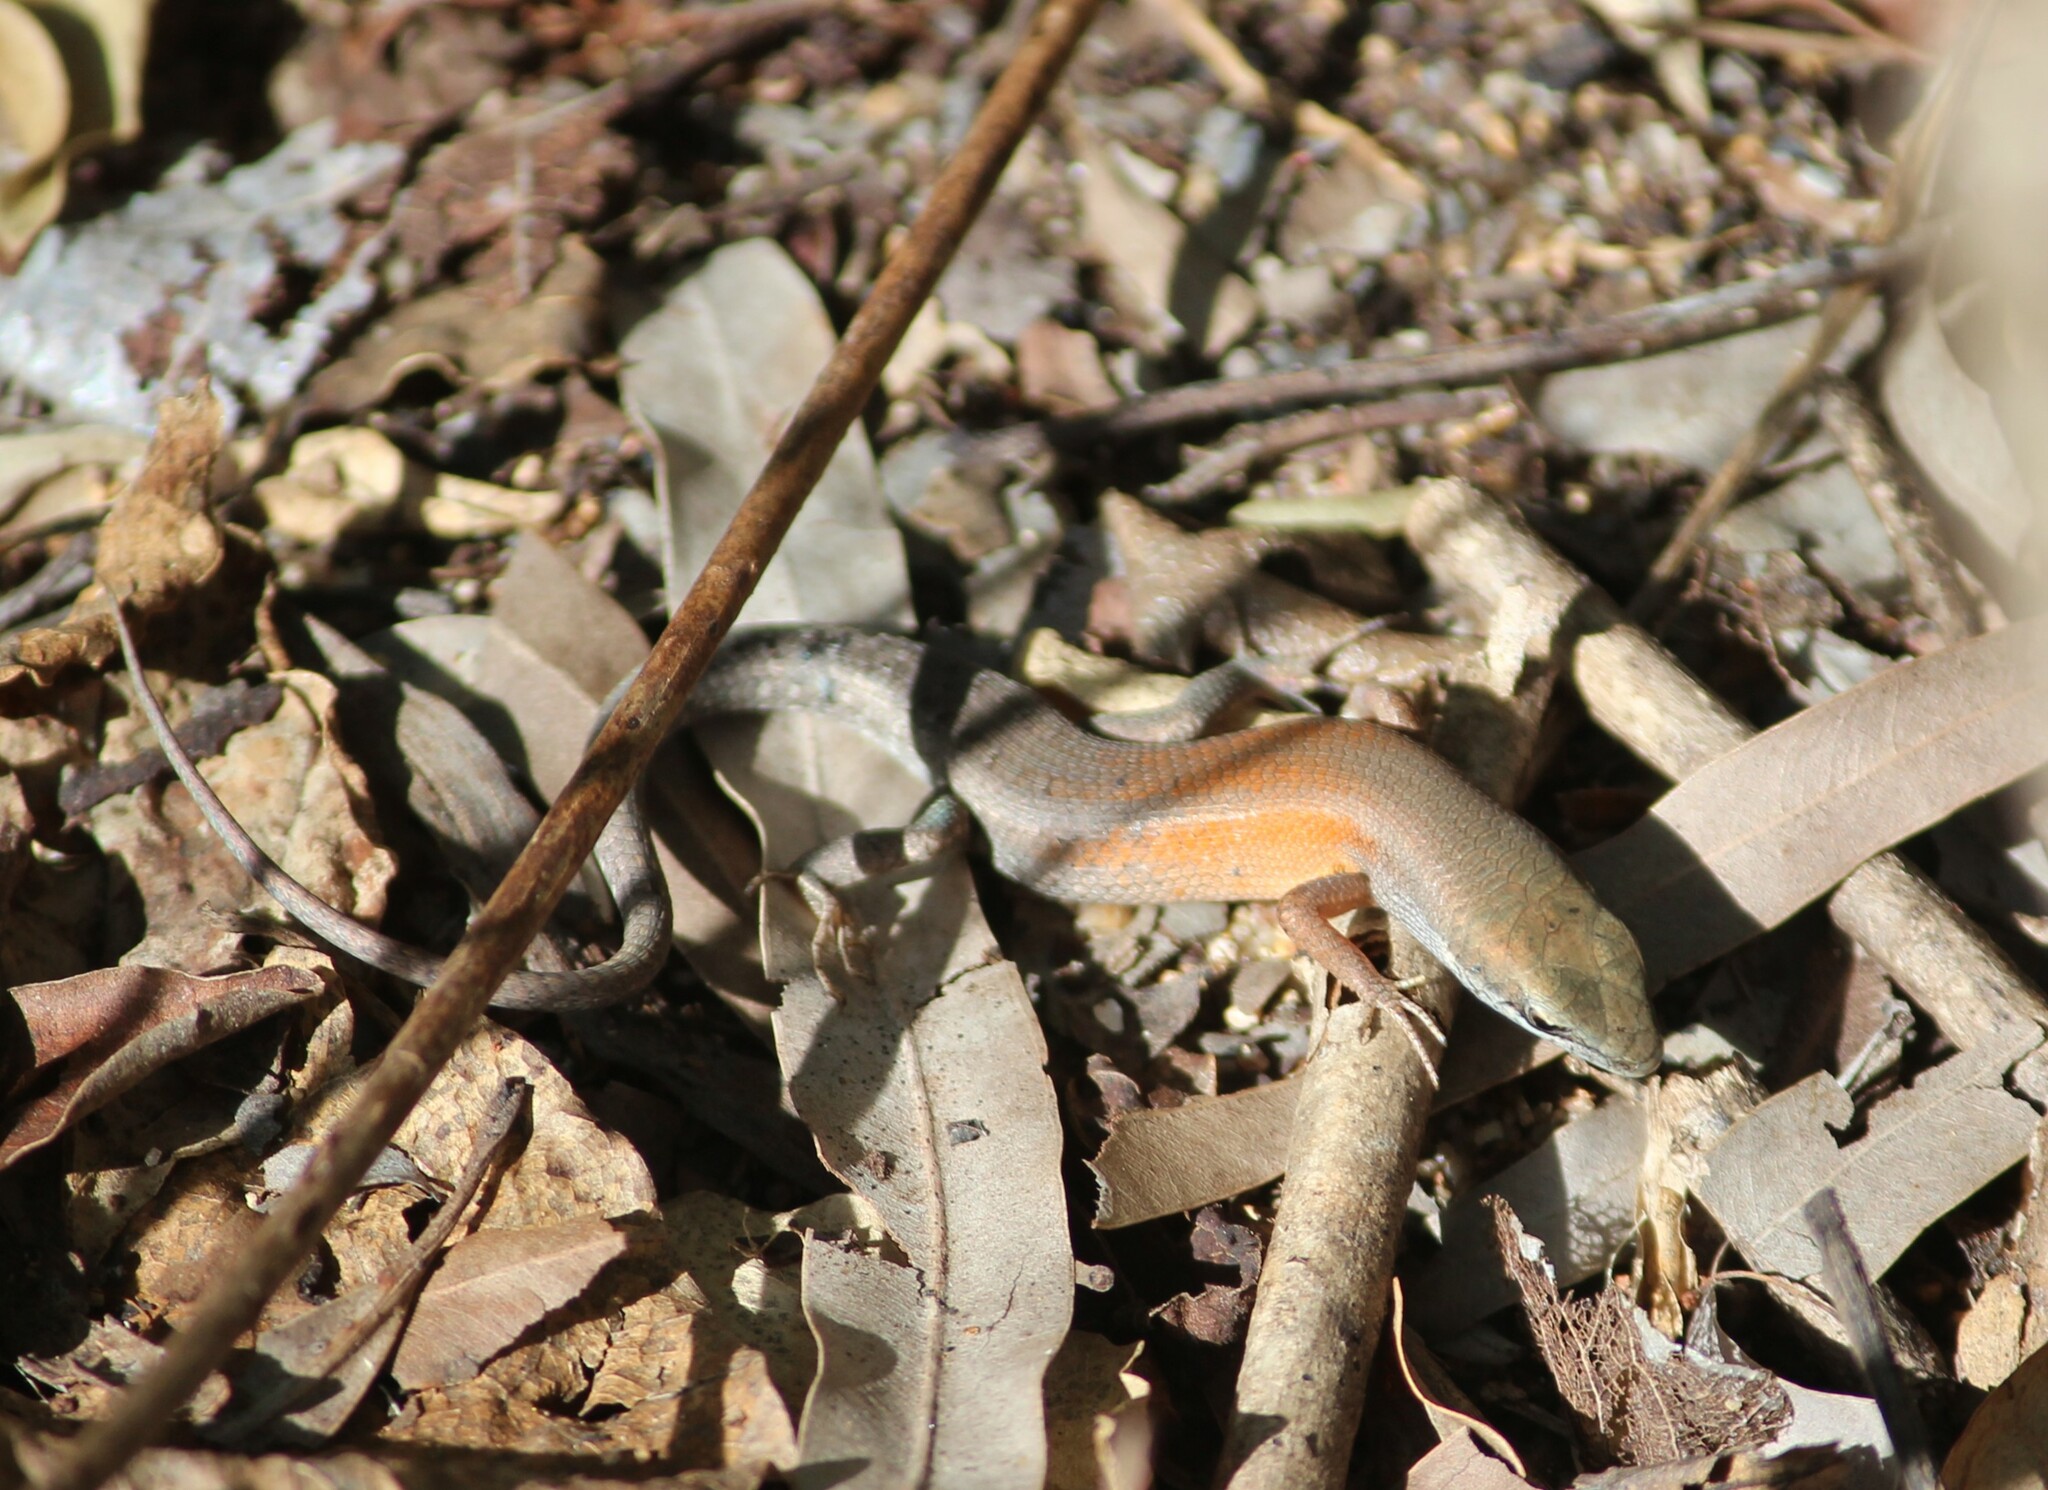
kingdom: Animalia
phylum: Chordata
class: Squamata
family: Scincidae
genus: Carlia
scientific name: Carlia rubigo
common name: Orange-flanked rainbow-skink
